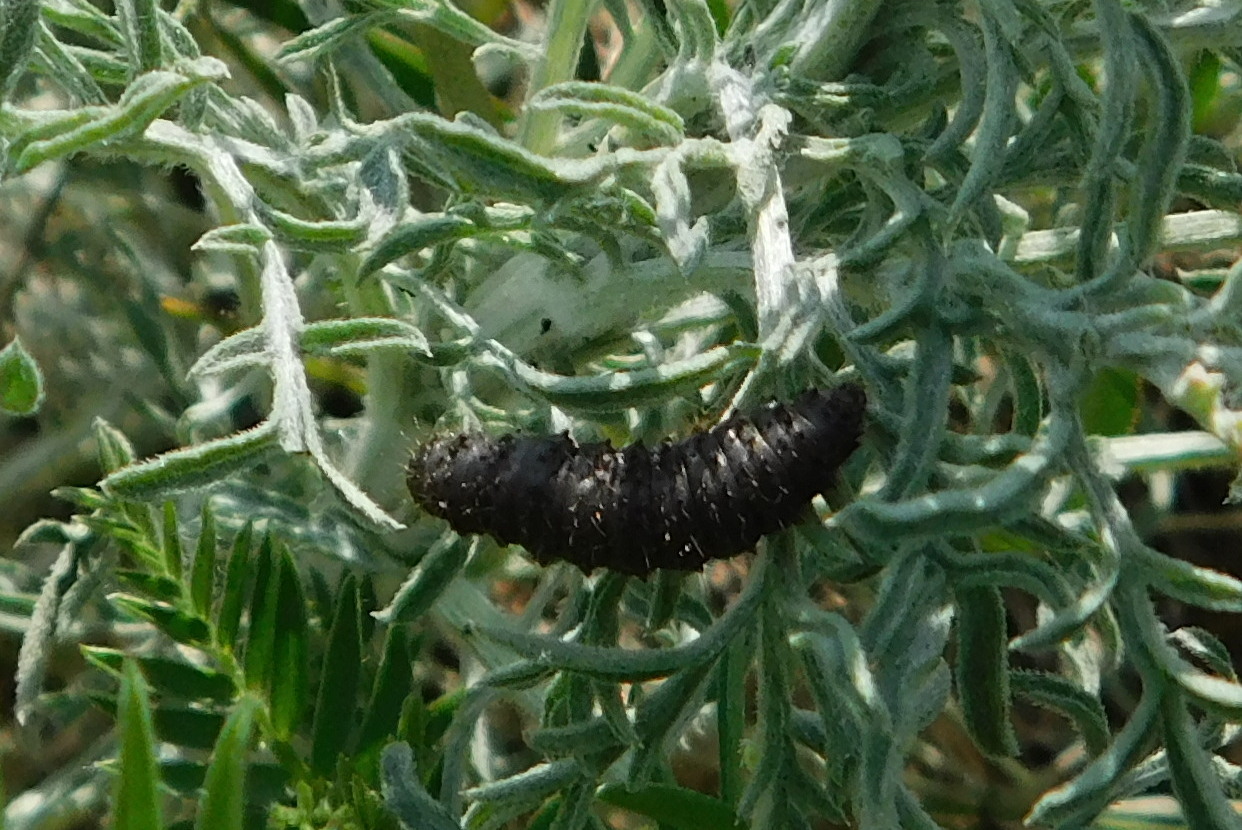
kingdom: Animalia
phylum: Arthropoda
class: Insecta
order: Coleoptera
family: Chrysomelidae
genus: Galeruca
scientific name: Galeruca tanaceti
